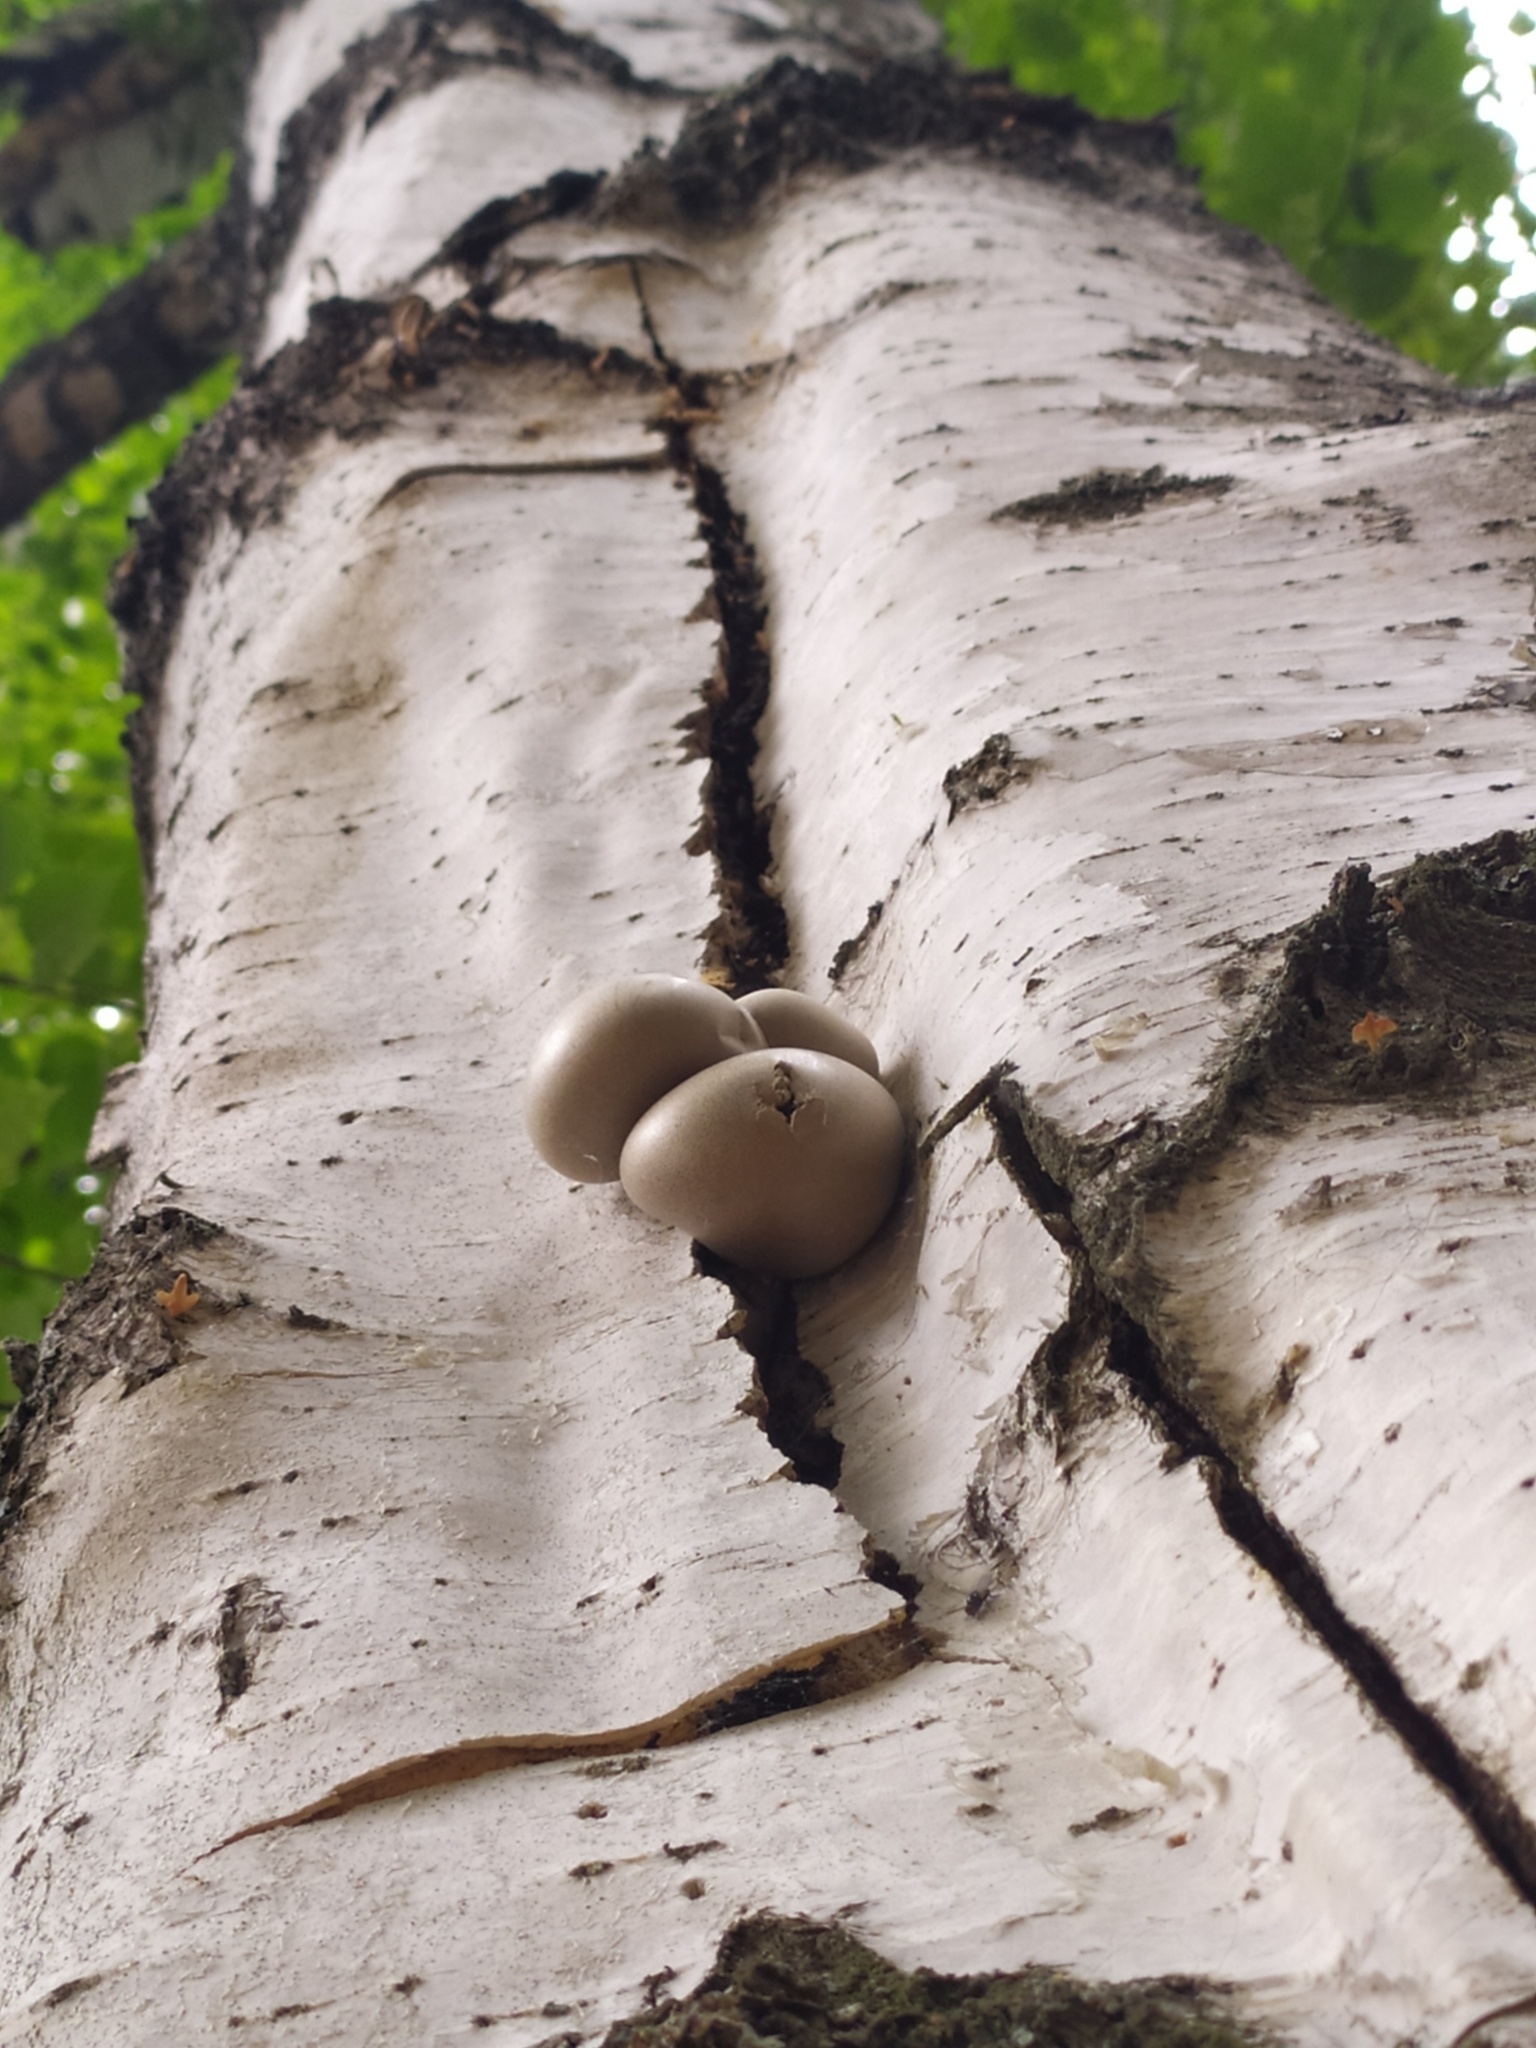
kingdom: Protozoa
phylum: Mycetozoa
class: Myxomycetes
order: Cribrariales
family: Tubiferaceae
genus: Lycogala
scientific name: Lycogala flavofuscum
